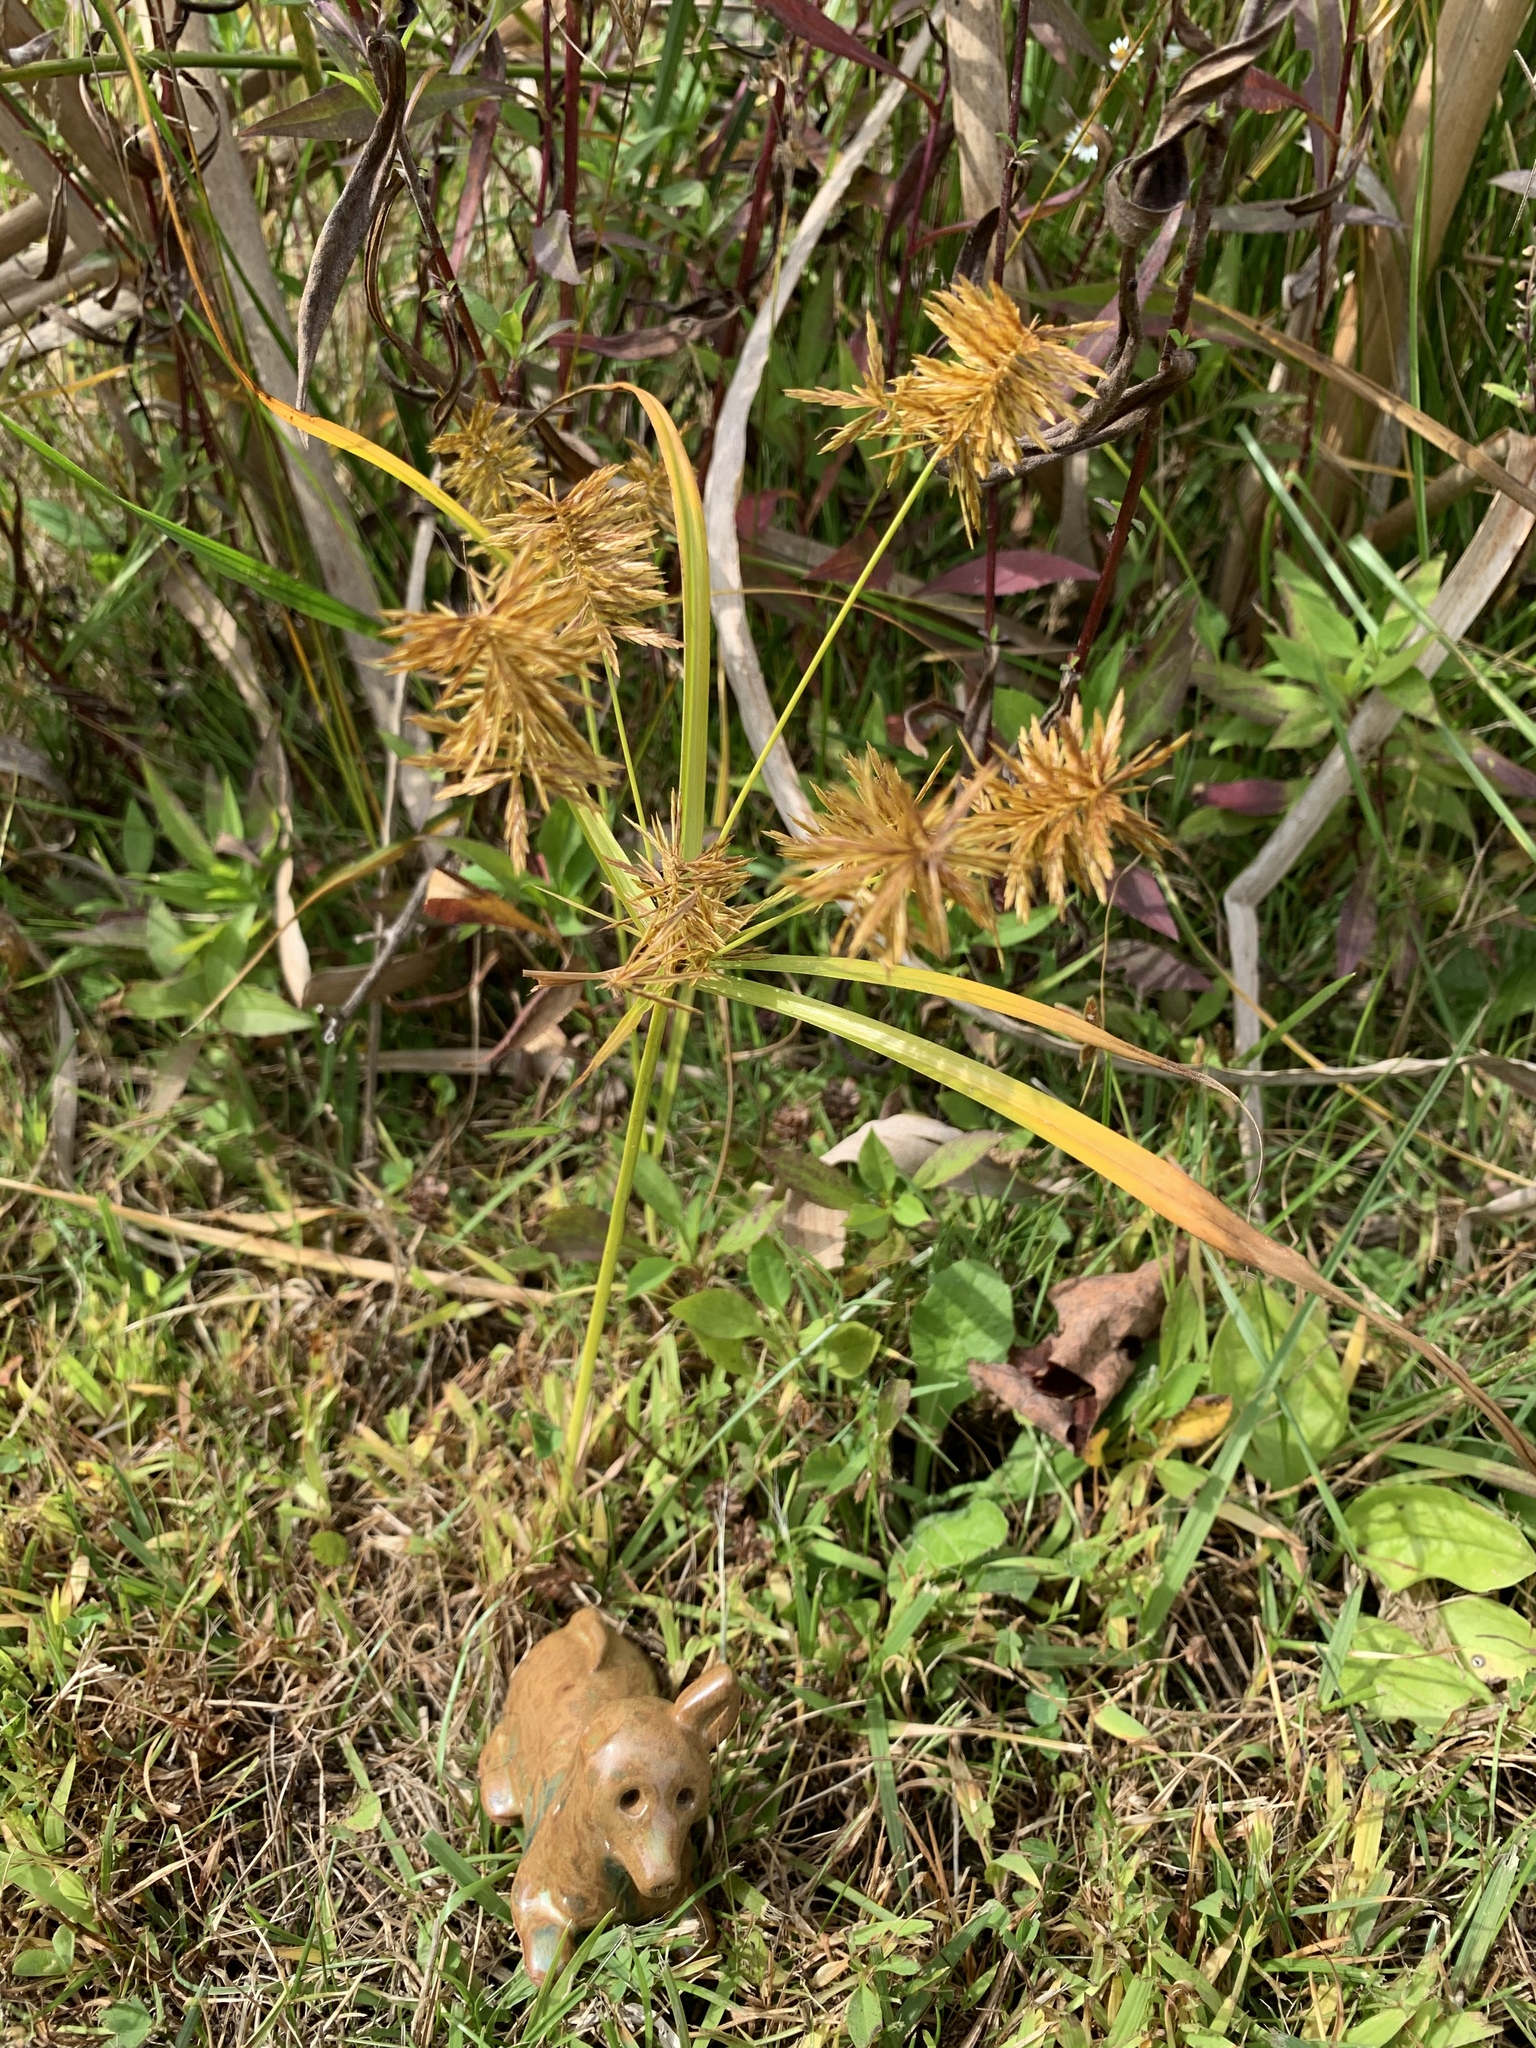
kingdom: Plantae
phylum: Tracheophyta
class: Liliopsida
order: Poales
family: Cyperaceae
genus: Cyperus
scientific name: Cyperus strigosus
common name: False nutsedge
